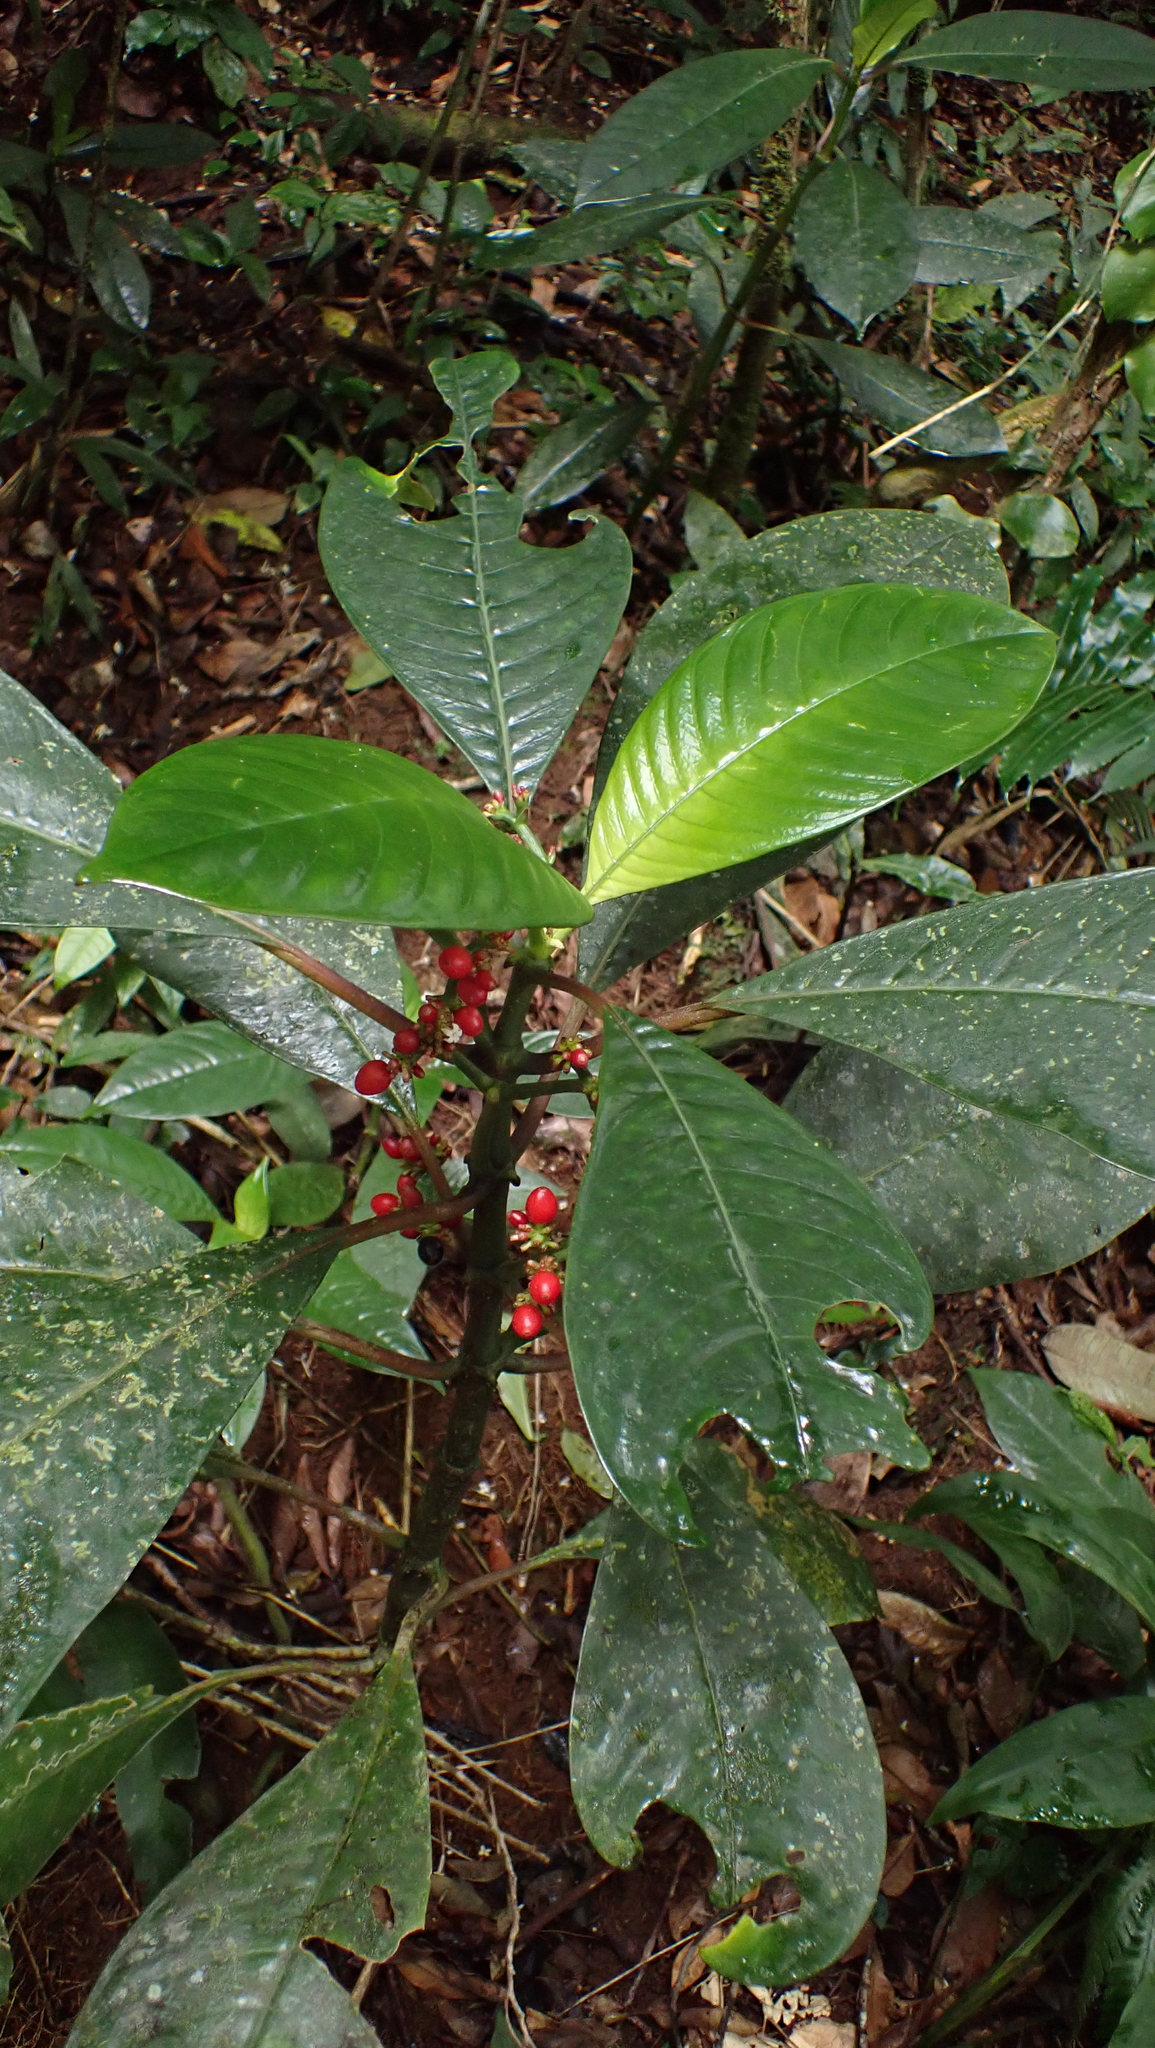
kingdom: Plantae
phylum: Tracheophyta
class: Magnoliopsida
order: Gentianales
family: Rubiaceae
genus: Notopleura
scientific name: Notopleura uliginosa
